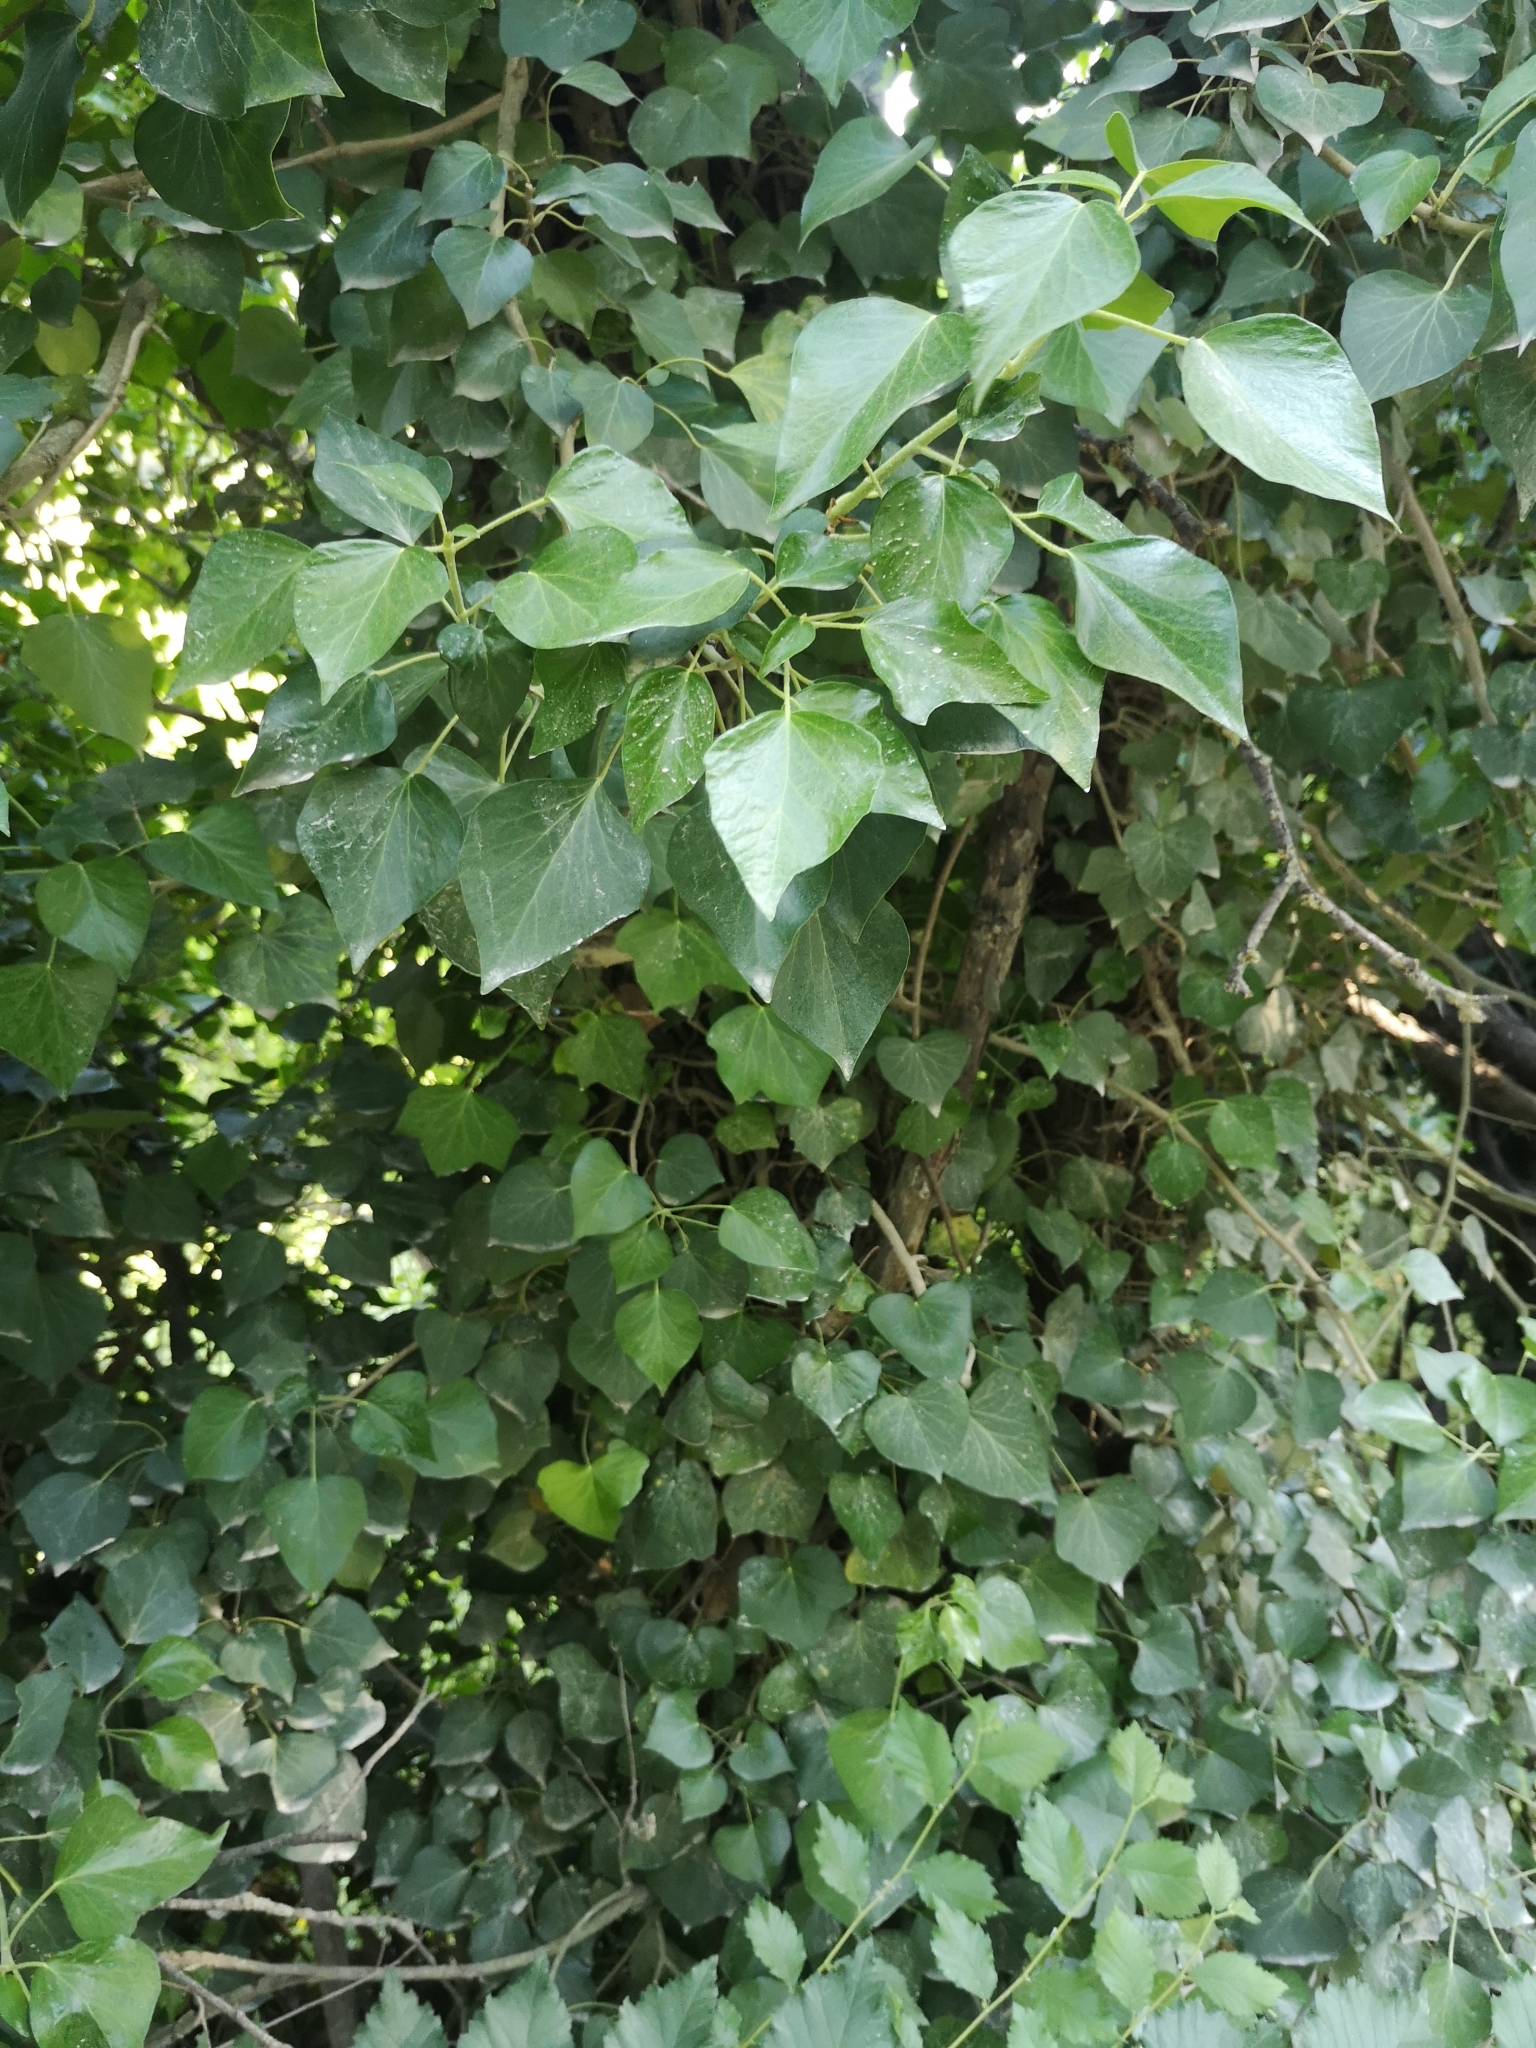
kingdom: Plantae
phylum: Tracheophyta
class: Magnoliopsida
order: Apiales
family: Araliaceae
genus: Hedera
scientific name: Hedera helix
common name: Ivy
